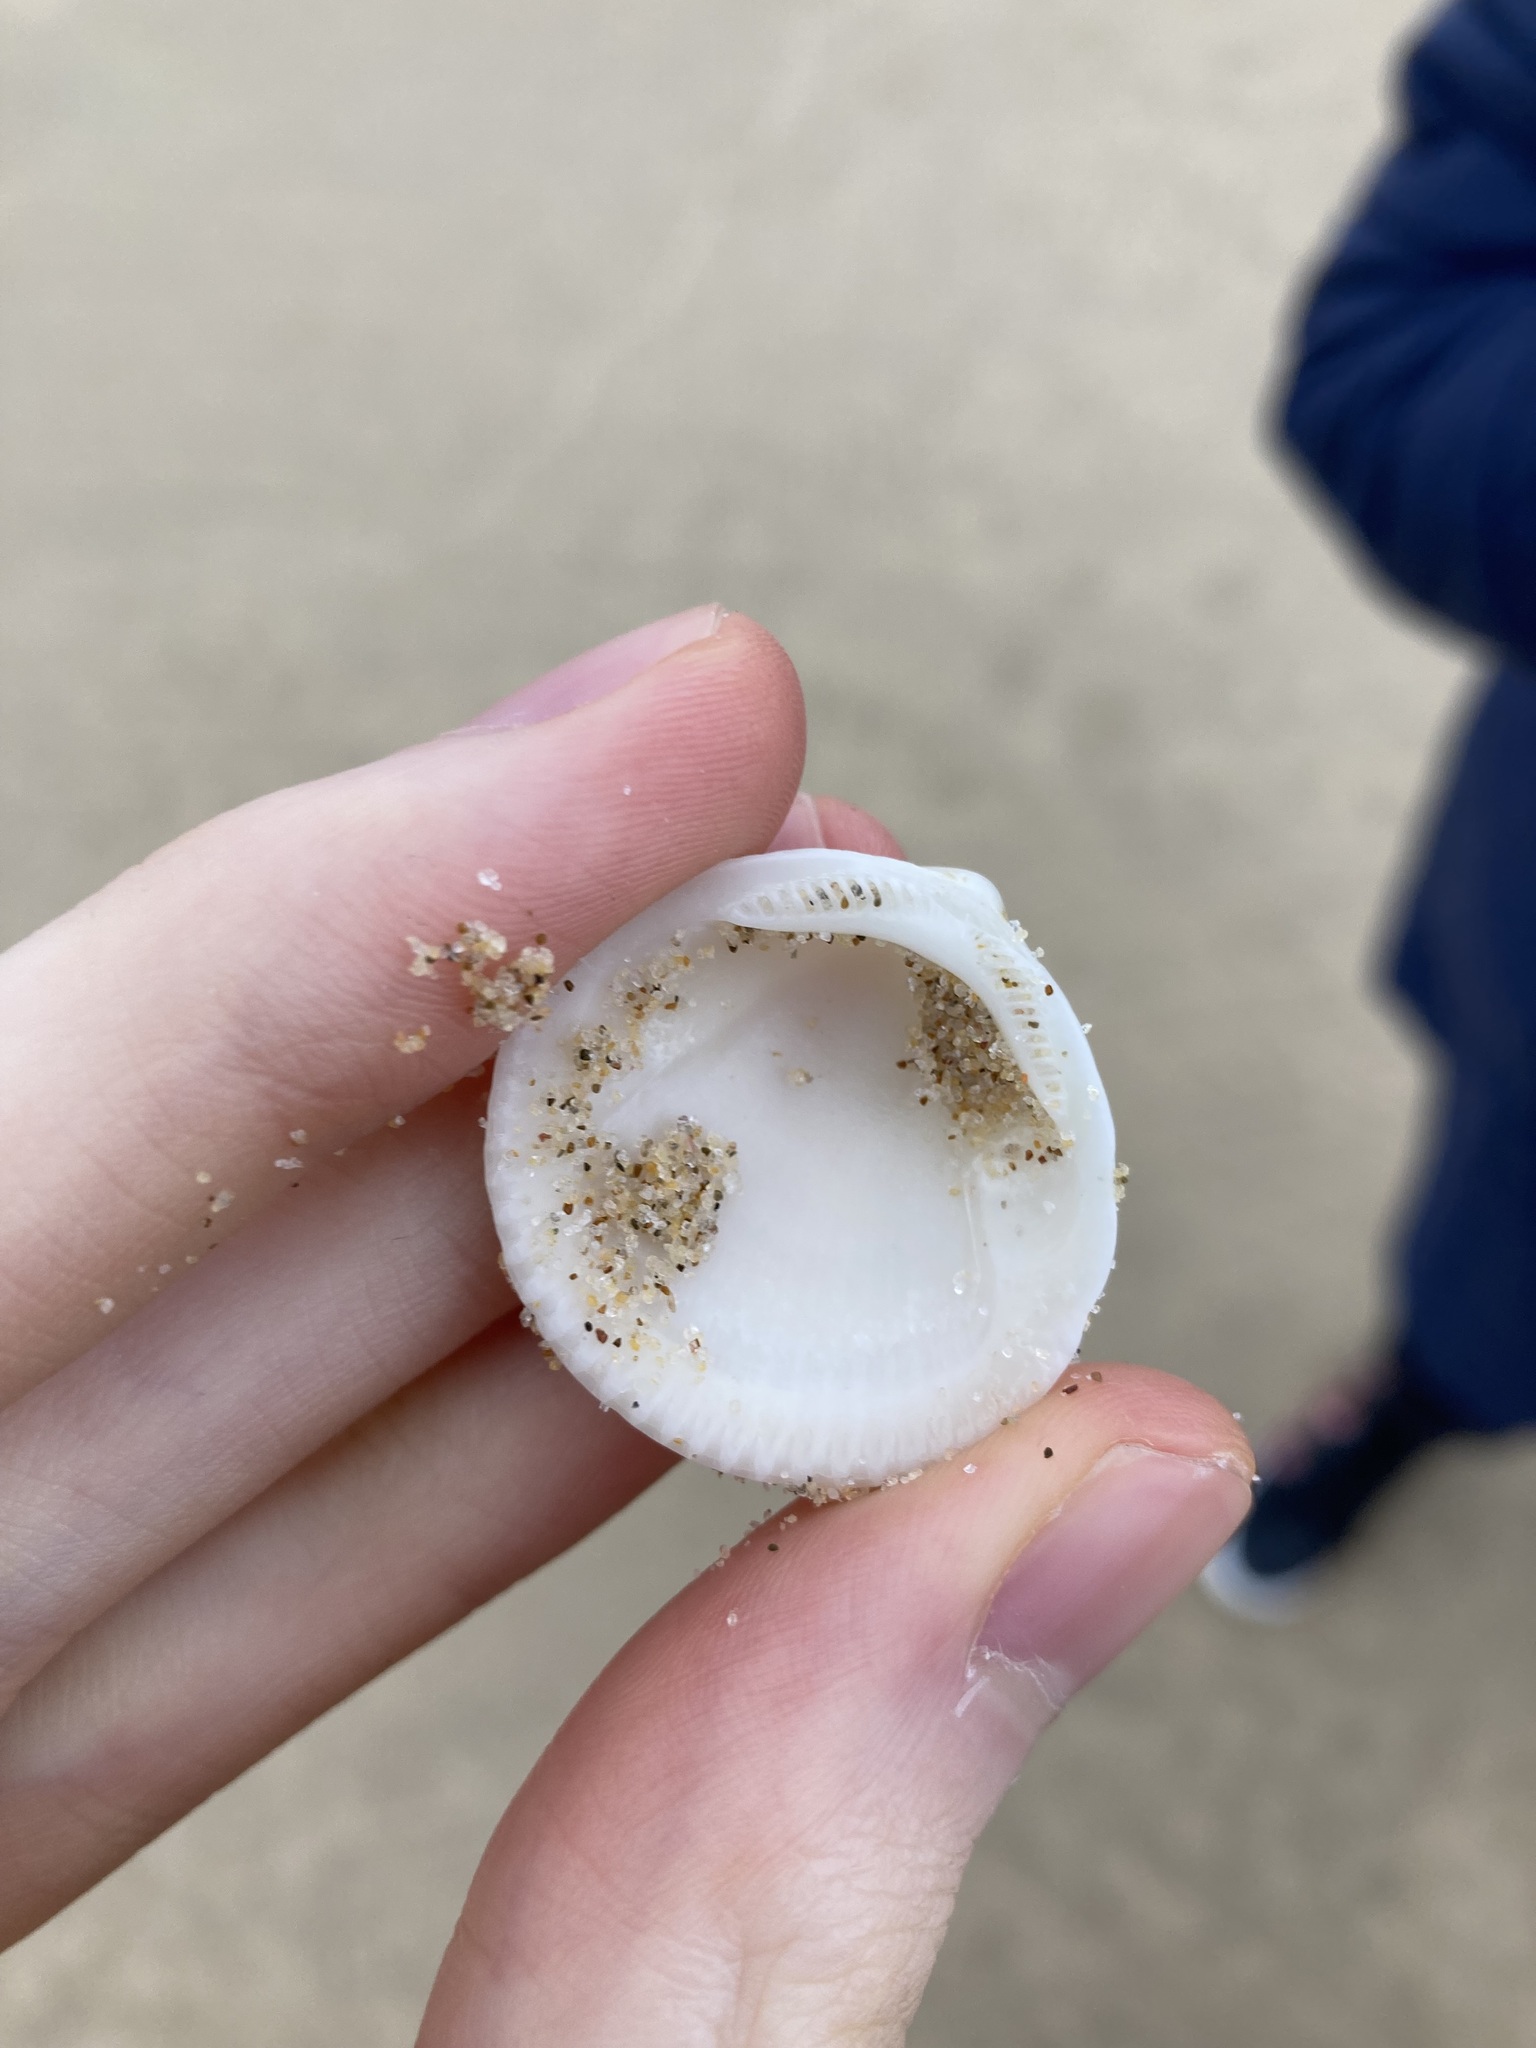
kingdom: Animalia
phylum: Mollusca
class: Bivalvia
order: Arcida
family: Glycymerididae
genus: Glycymeris
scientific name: Glycymeris holoserica
